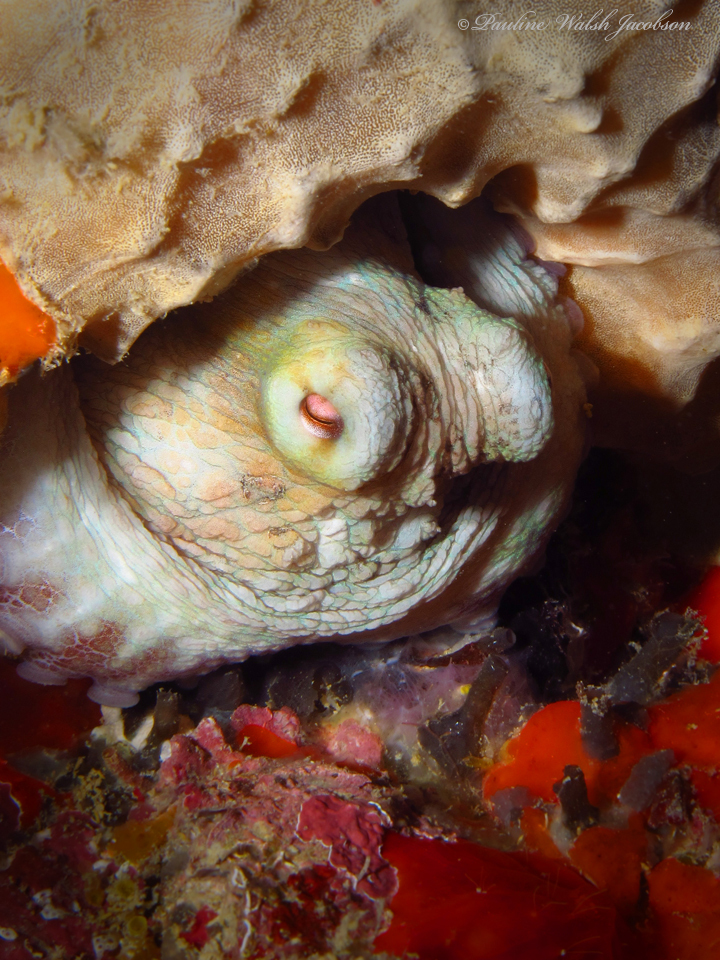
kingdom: Animalia
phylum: Mollusca
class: Cephalopoda
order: Octopoda
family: Octopodidae
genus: Octopus
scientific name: Octopus insularis
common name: Brazil reef octopus
